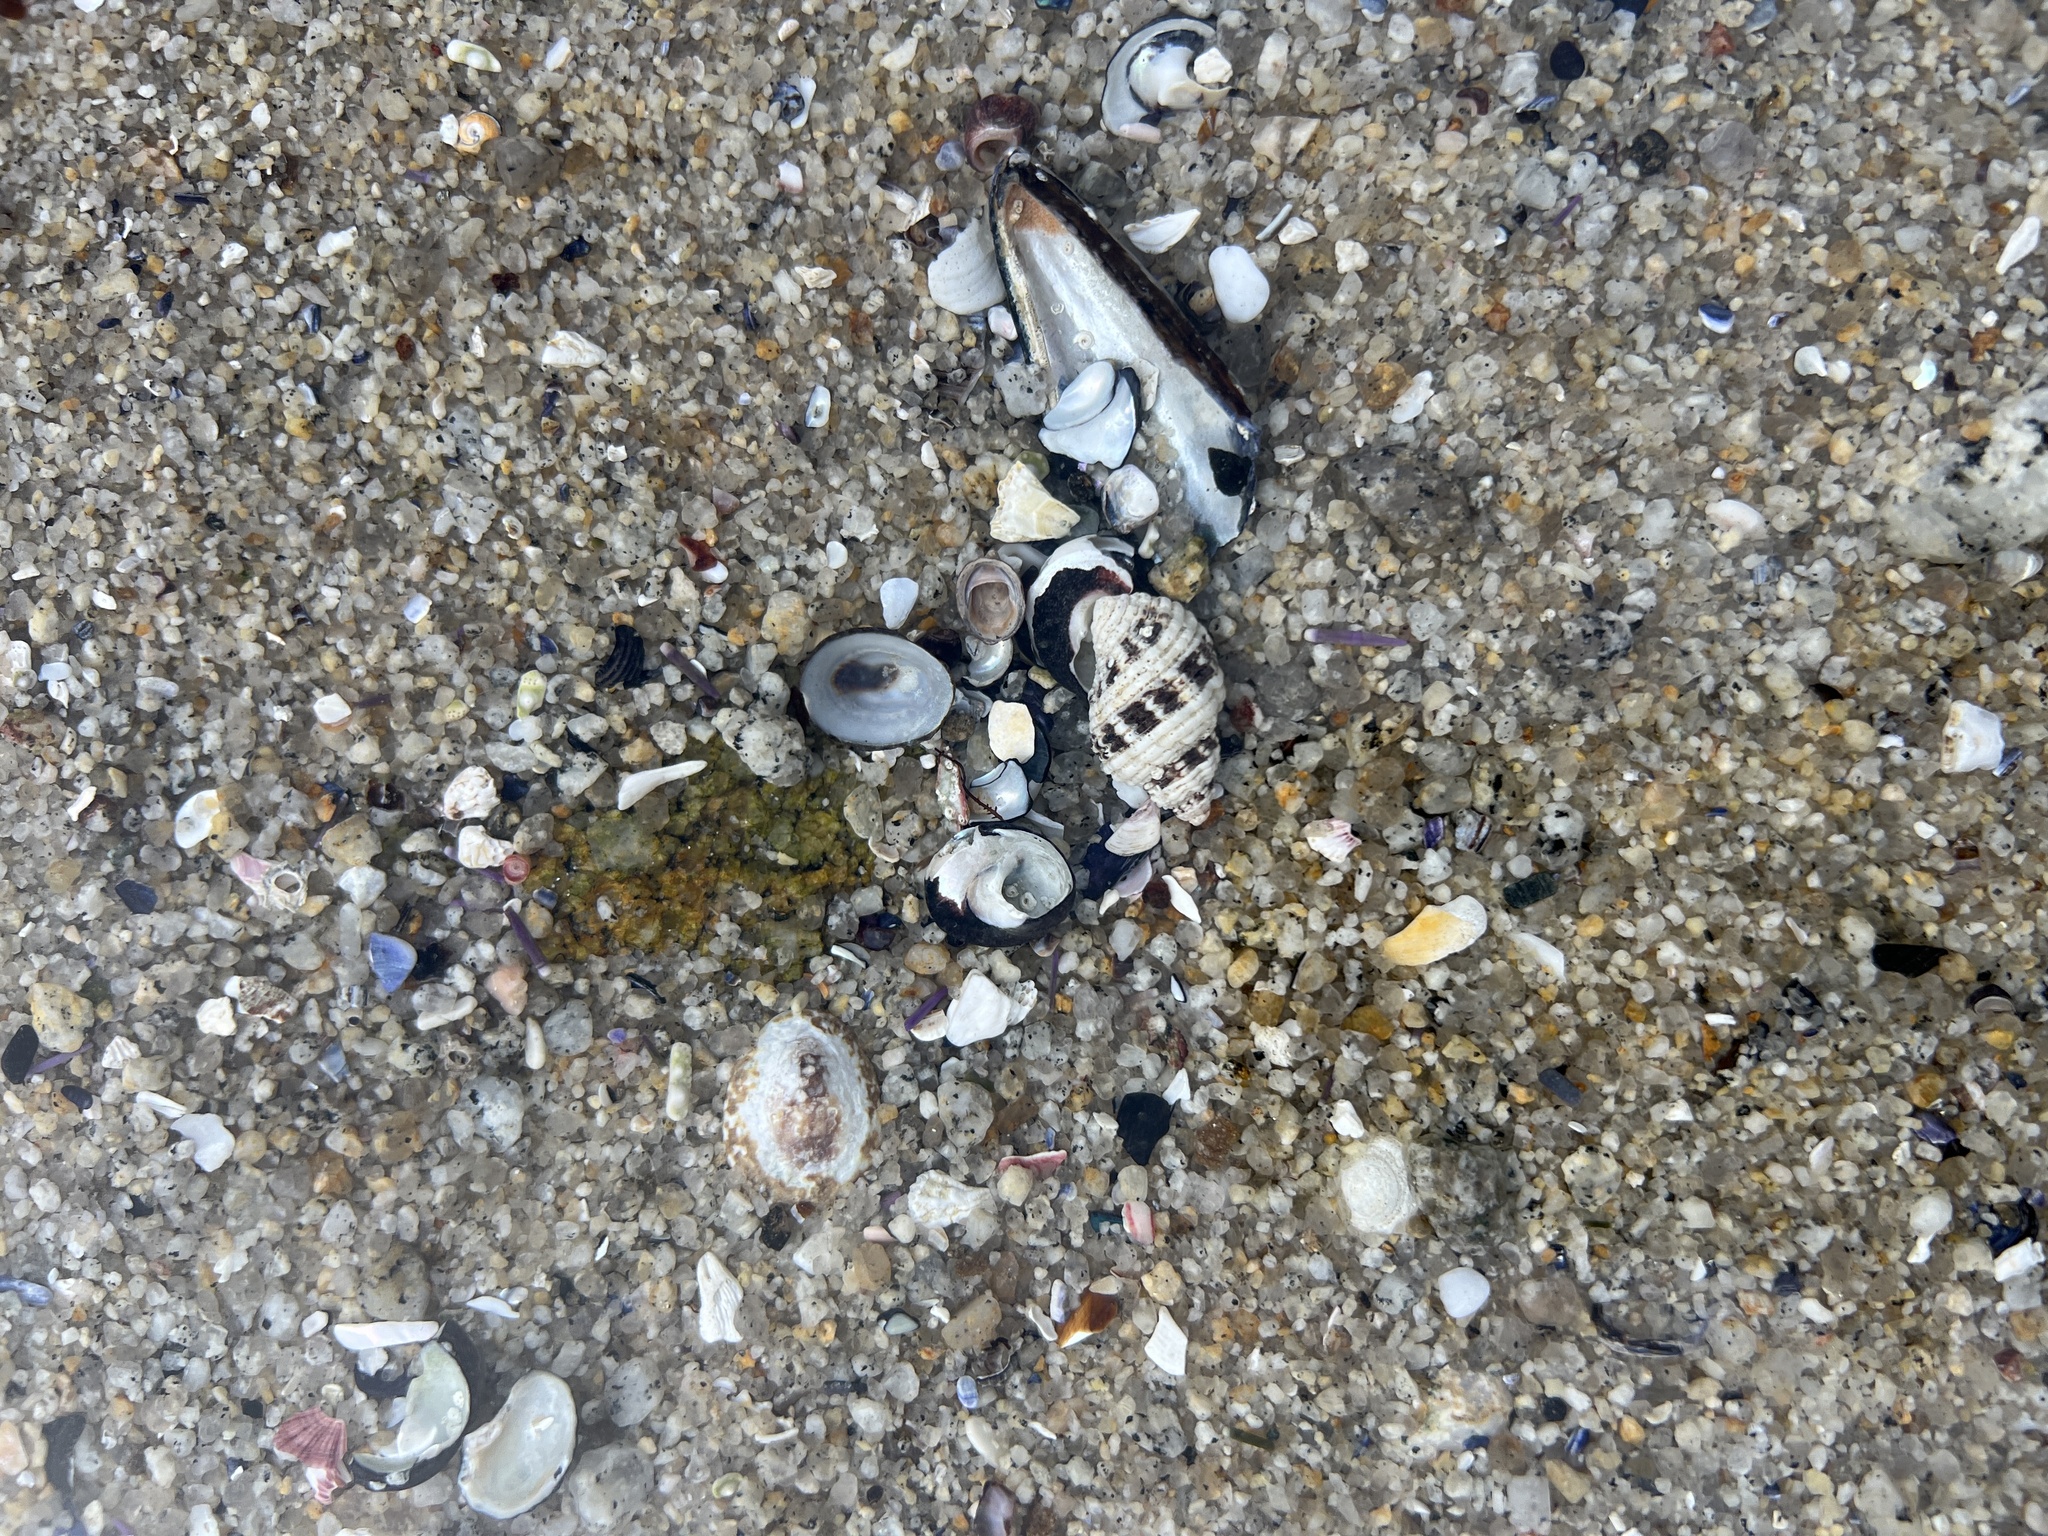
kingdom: Animalia
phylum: Mollusca
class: Gastropoda
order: Neogastropoda
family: Muricidae
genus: Paciocinebrina
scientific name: Paciocinebrina circumtexta
